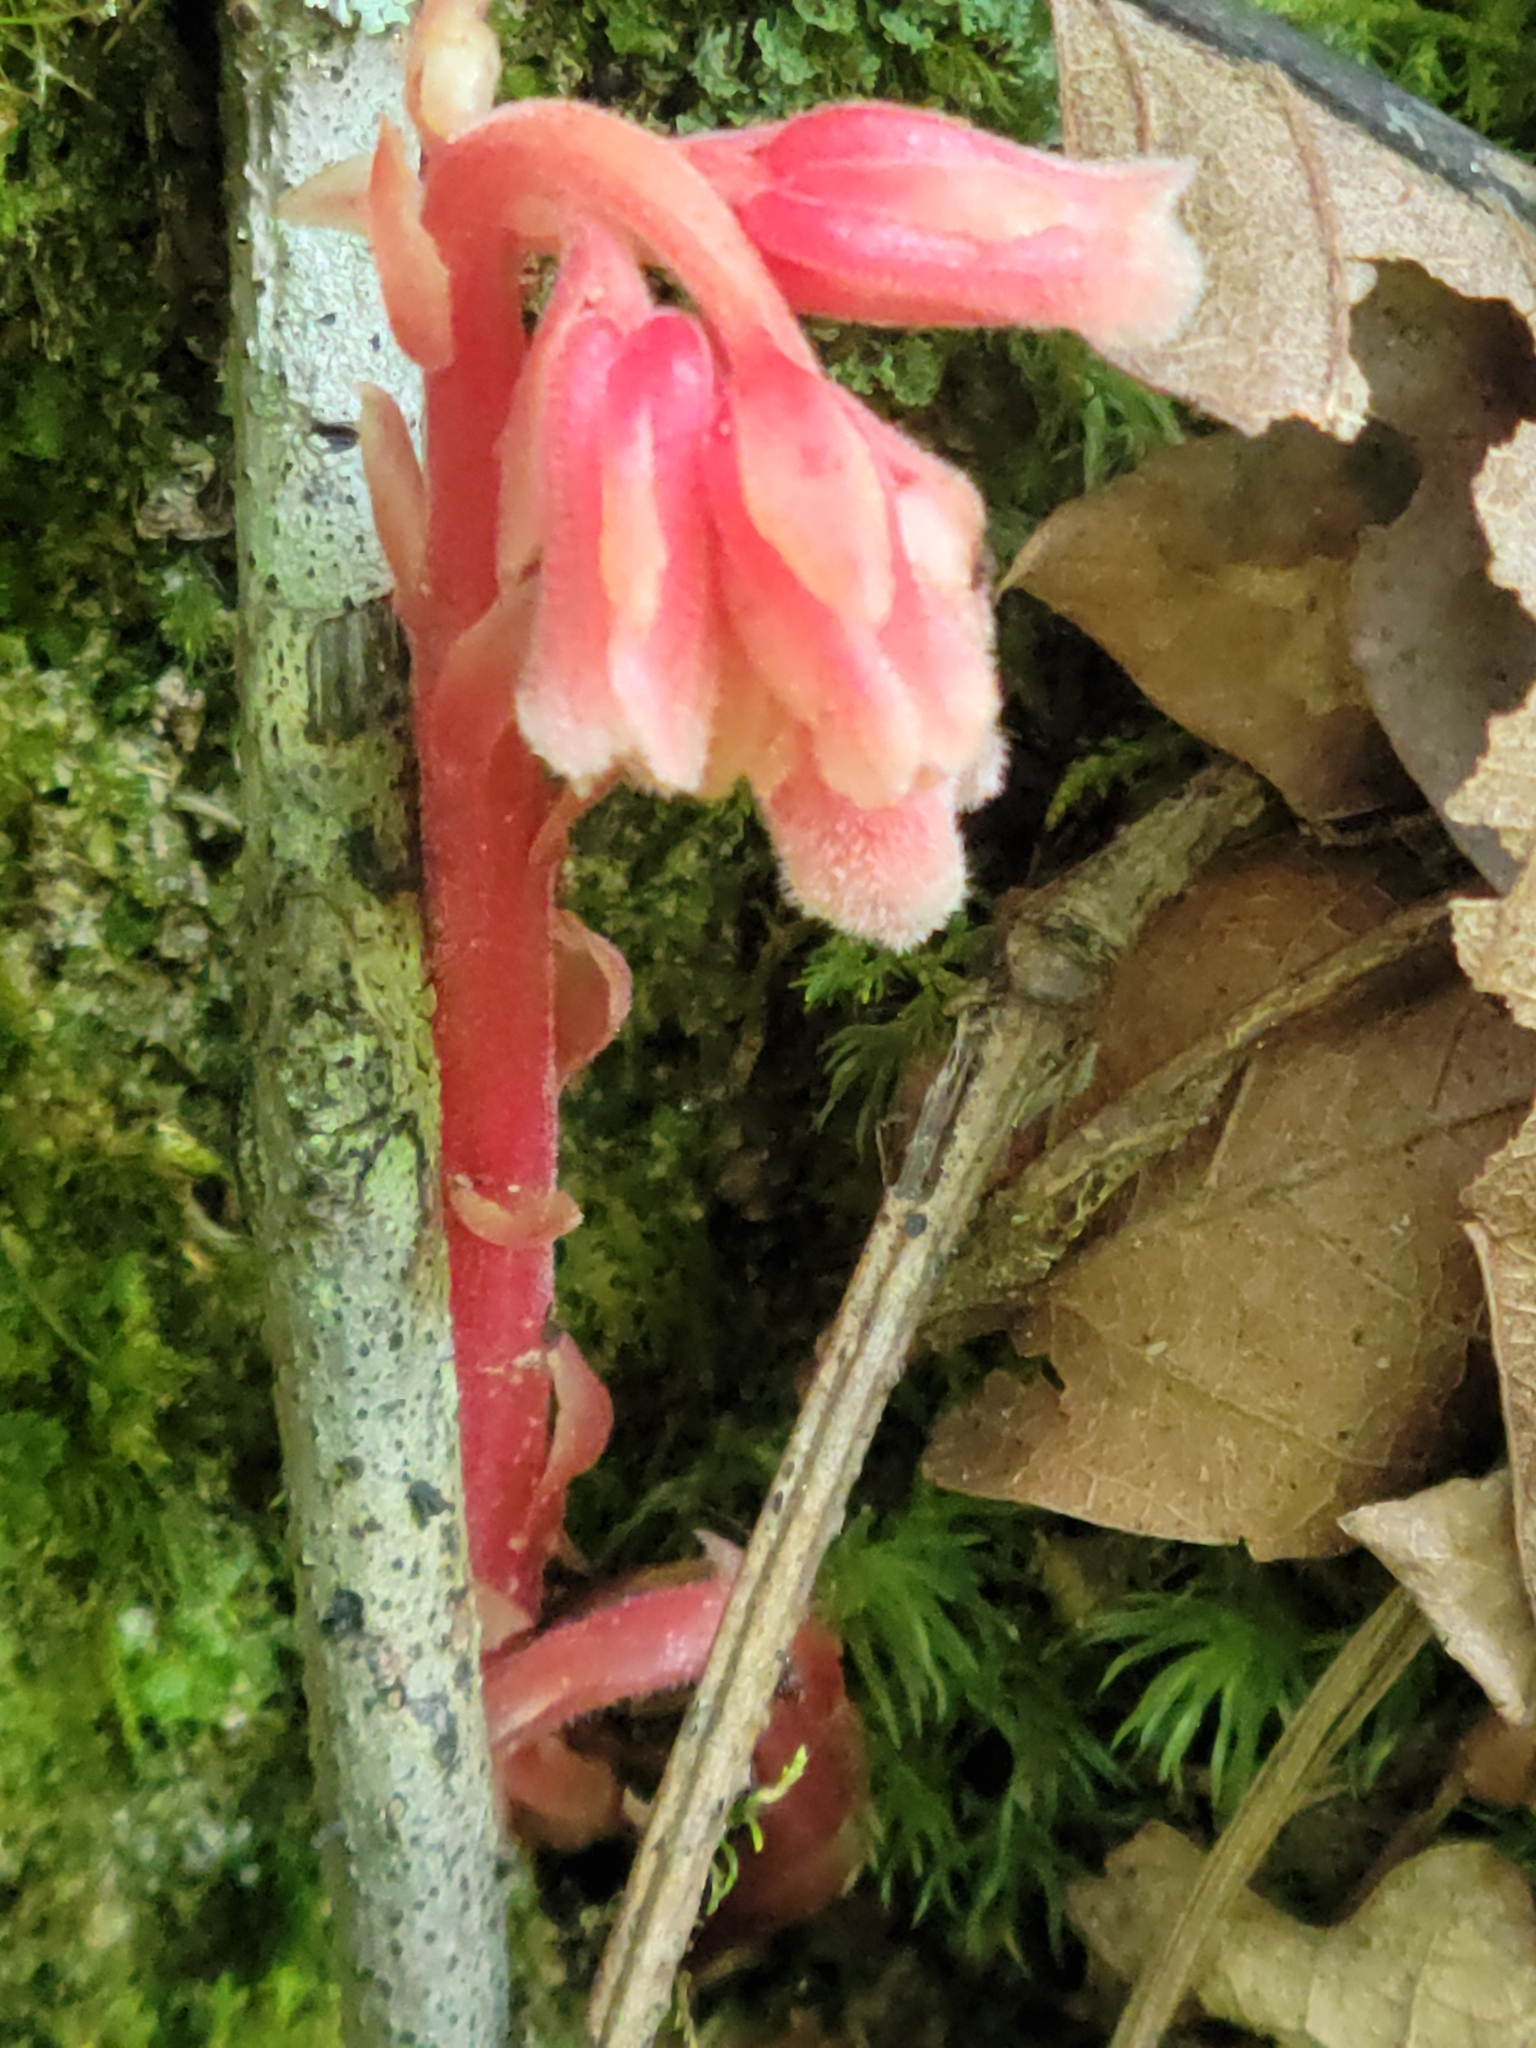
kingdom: Plantae
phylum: Tracheophyta
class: Magnoliopsida
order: Ericales
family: Ericaceae
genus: Hypopitys
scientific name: Hypopitys monotropa
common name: Yellow bird's-nest
